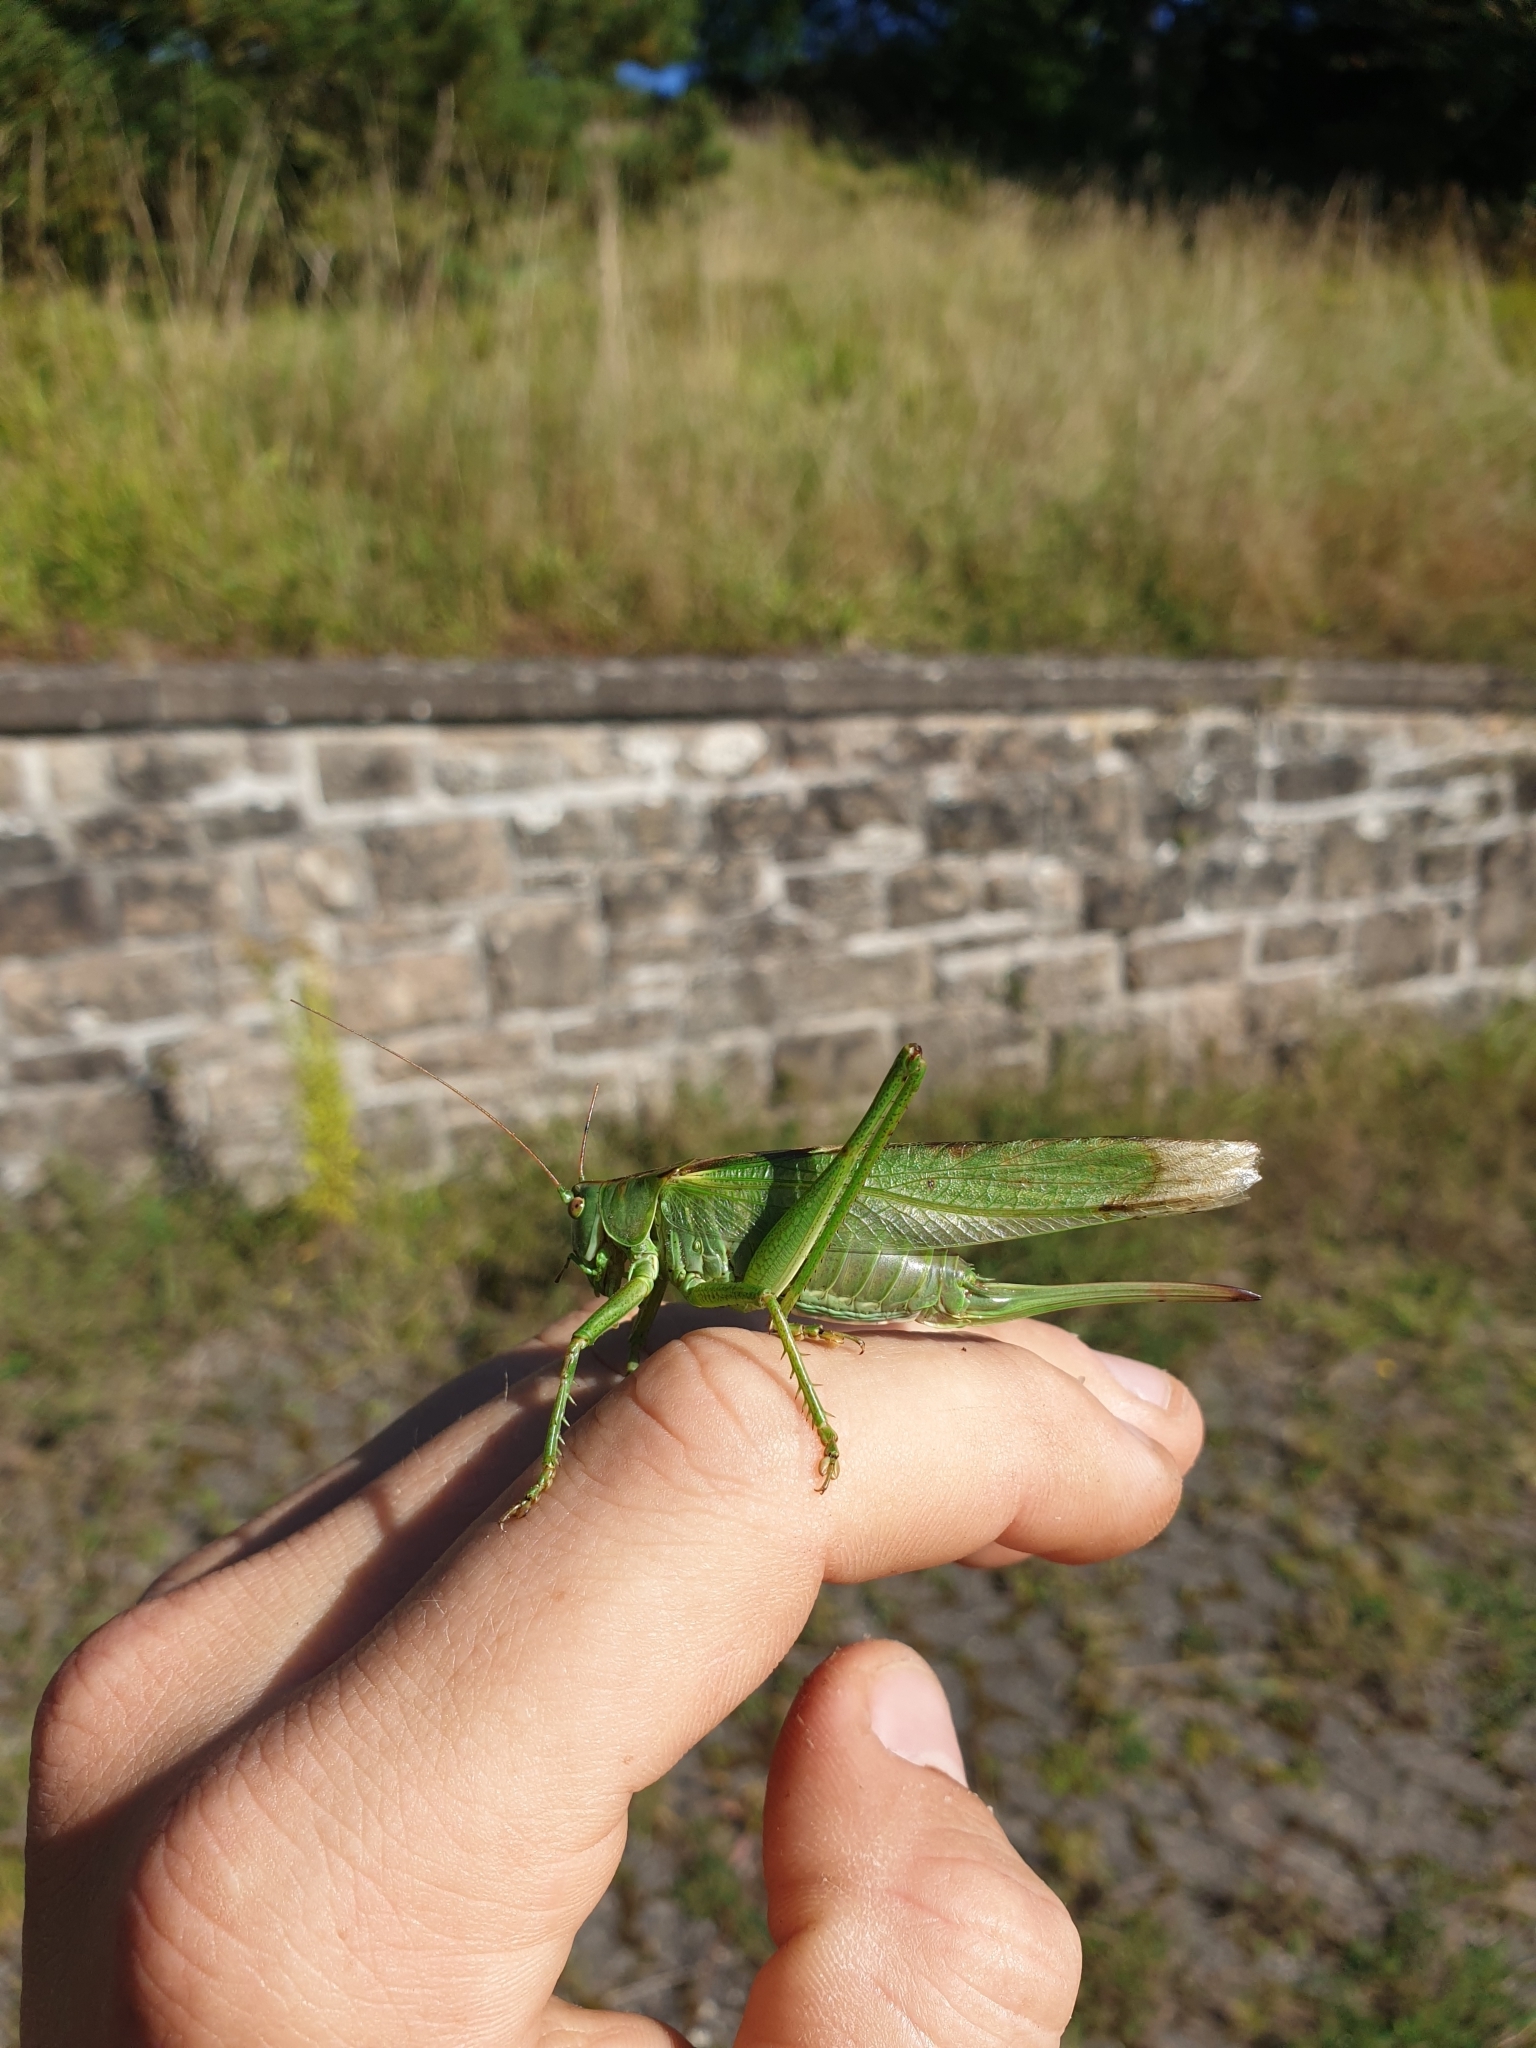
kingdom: Animalia
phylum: Arthropoda
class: Insecta
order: Orthoptera
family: Tettigoniidae
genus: Tettigonia
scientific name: Tettigonia viridissima
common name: Great green bush-cricket
